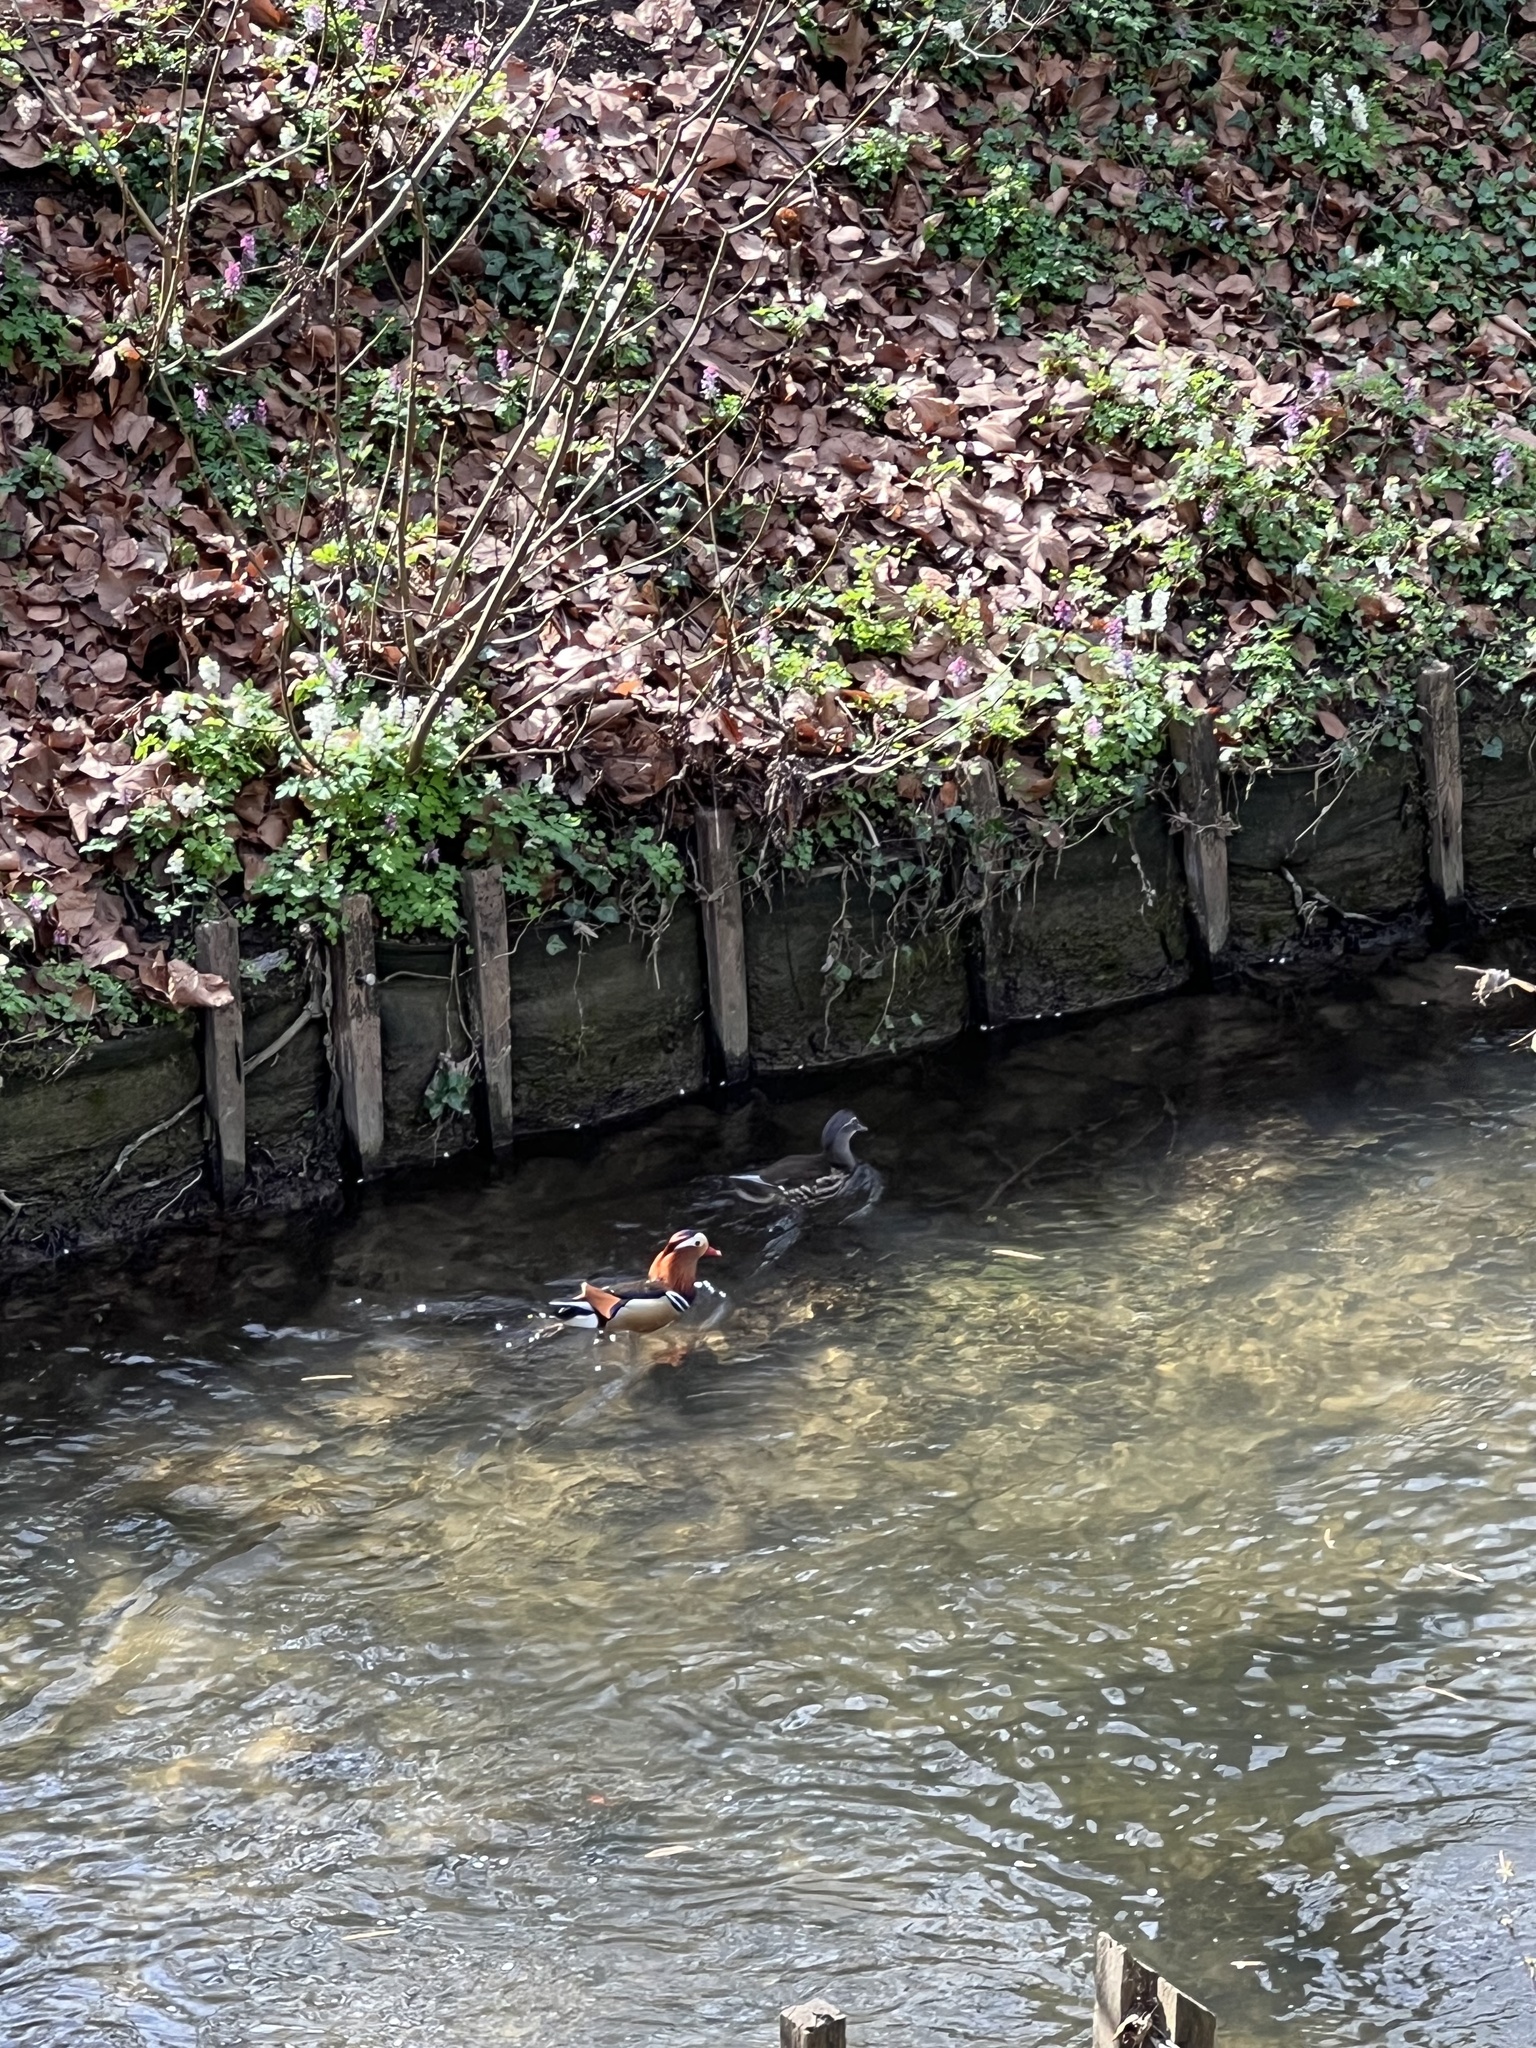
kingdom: Animalia
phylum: Chordata
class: Aves
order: Anseriformes
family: Anatidae
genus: Aix
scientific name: Aix galericulata
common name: Mandarin duck
